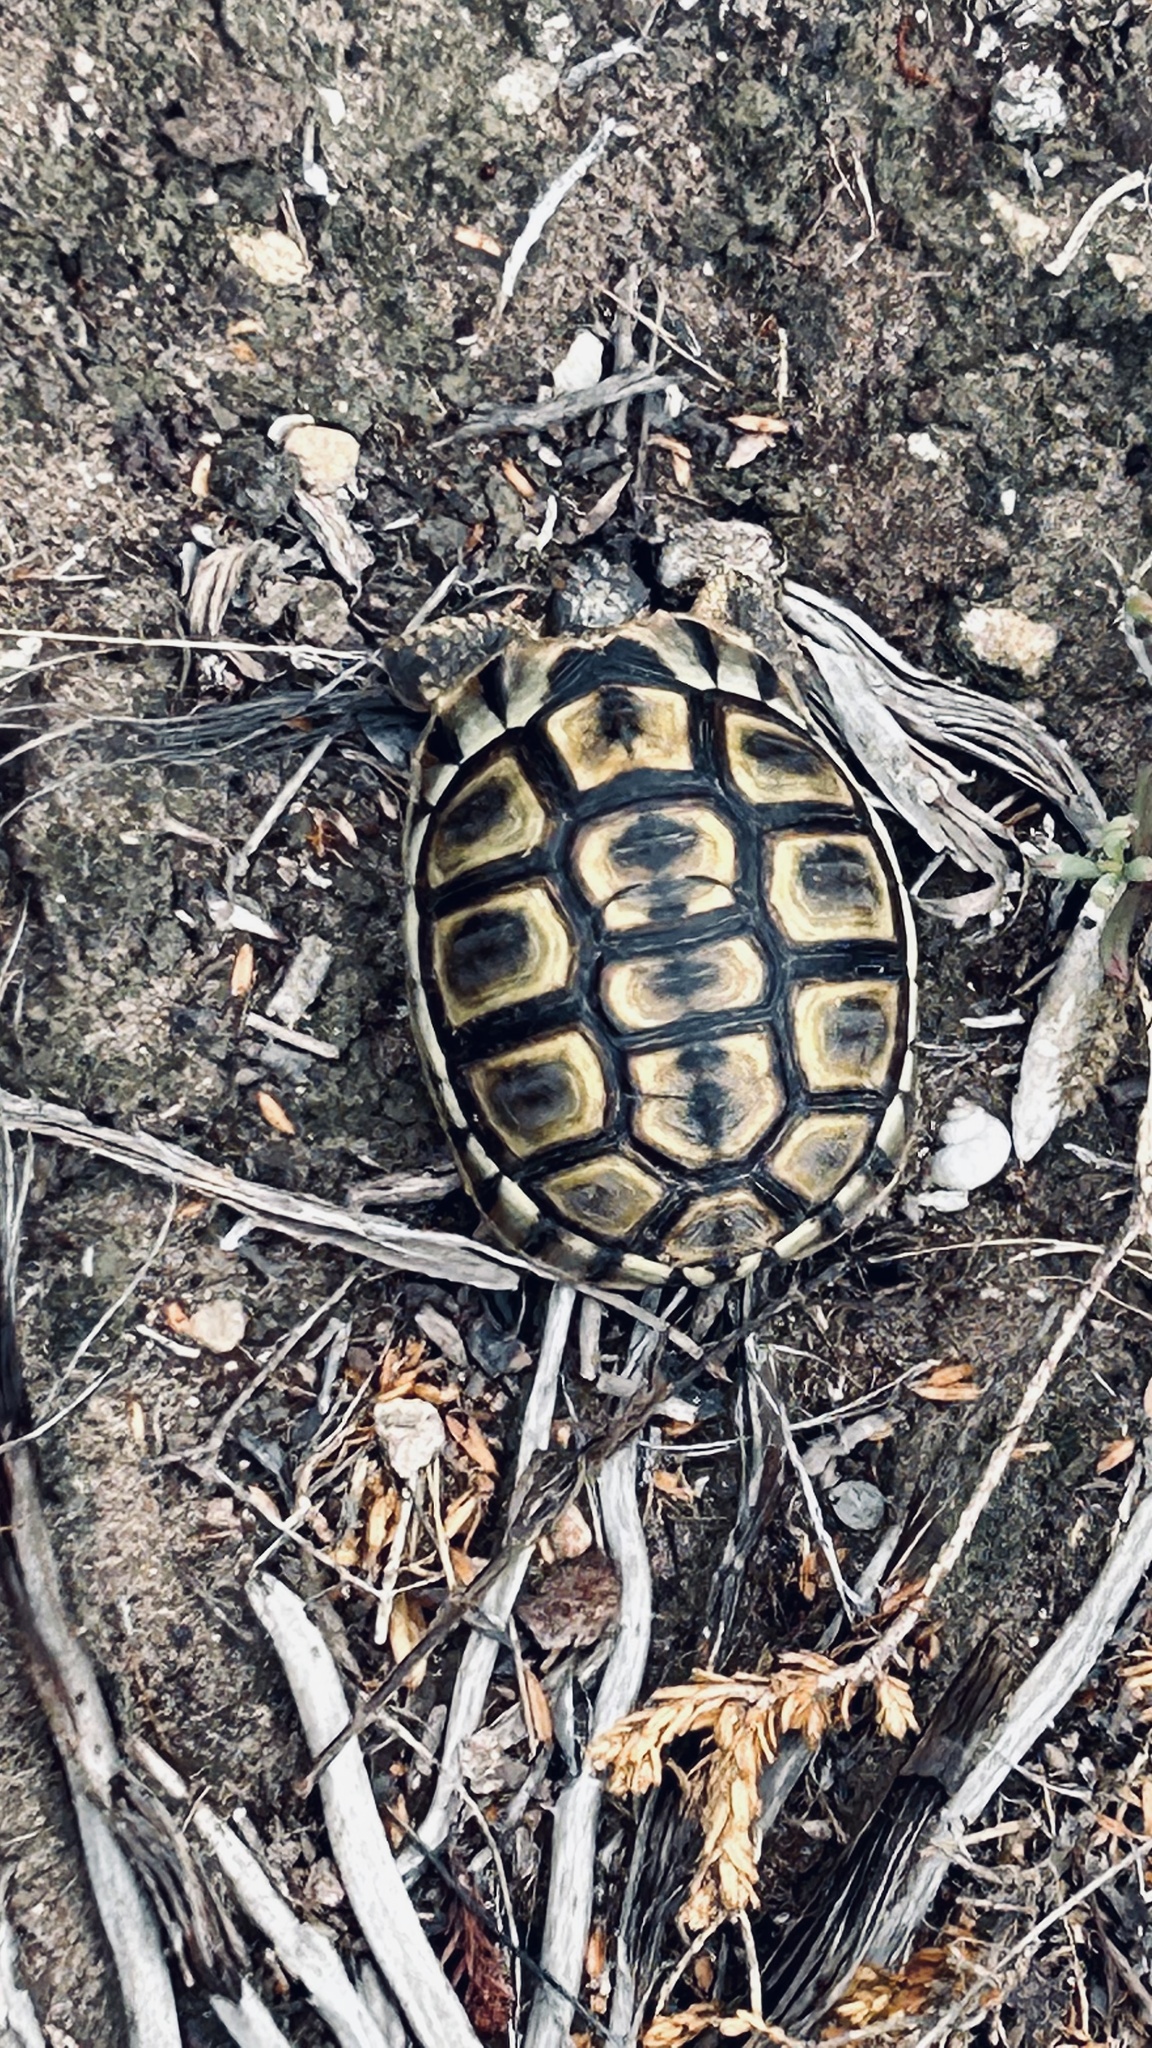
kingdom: Animalia
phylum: Chordata
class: Testudines
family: Testudinidae
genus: Chersina
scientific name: Chersina angulata
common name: South african bowsprit tortoise
